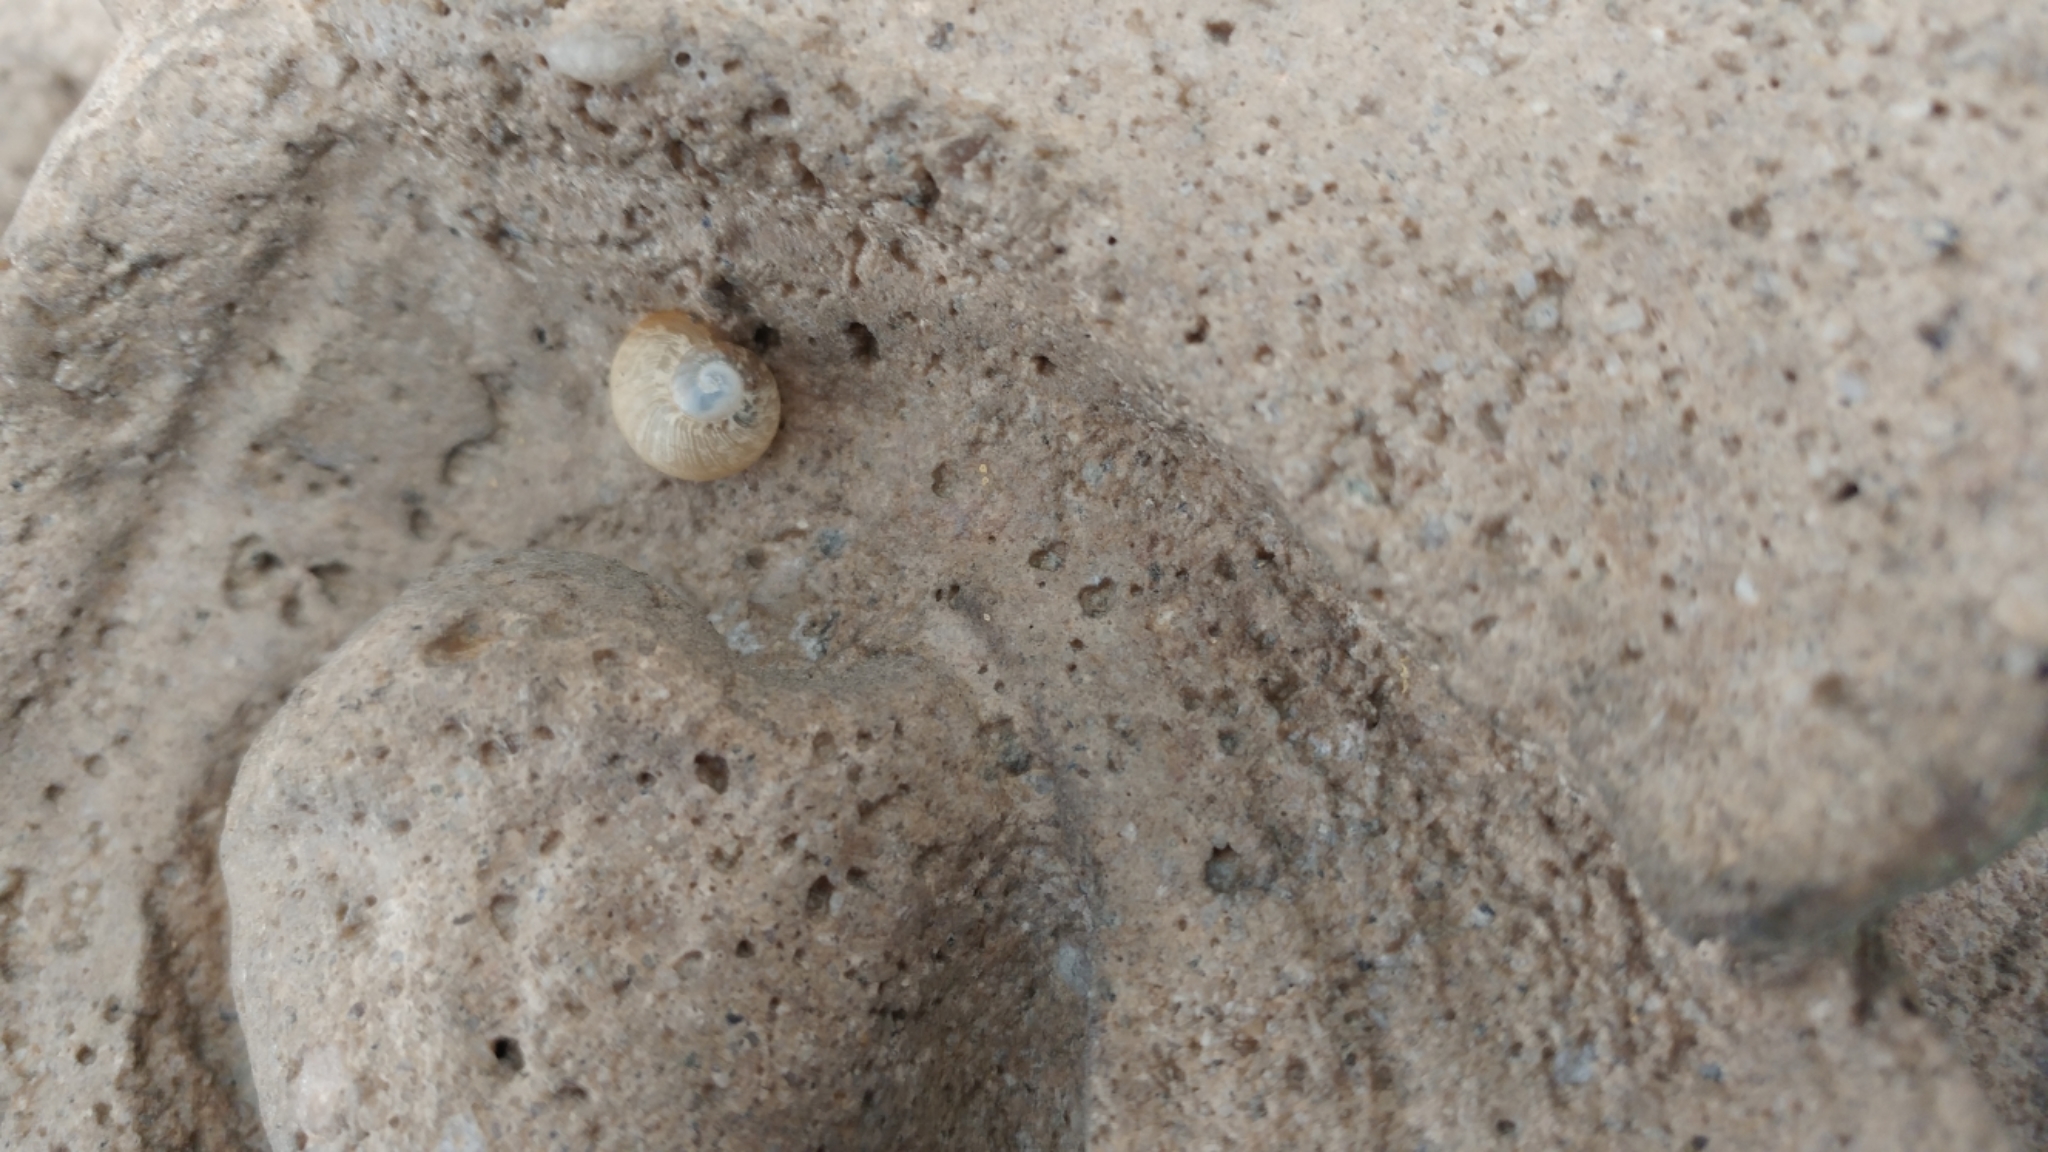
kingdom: Animalia
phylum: Mollusca
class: Gastropoda
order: Stylommatophora
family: Helicidae
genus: Cornu
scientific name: Cornu aspersum
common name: Brown garden snail
